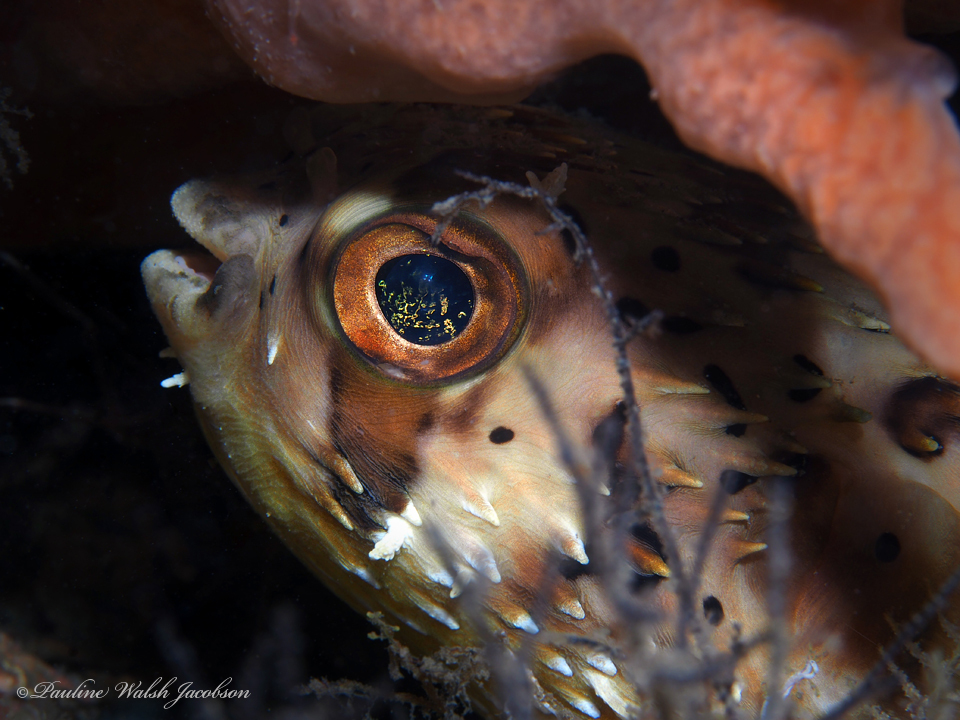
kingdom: Animalia
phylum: Chordata
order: Tetraodontiformes
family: Diodontidae
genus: Diodon
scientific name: Diodon holocanthus
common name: Balloonfish
